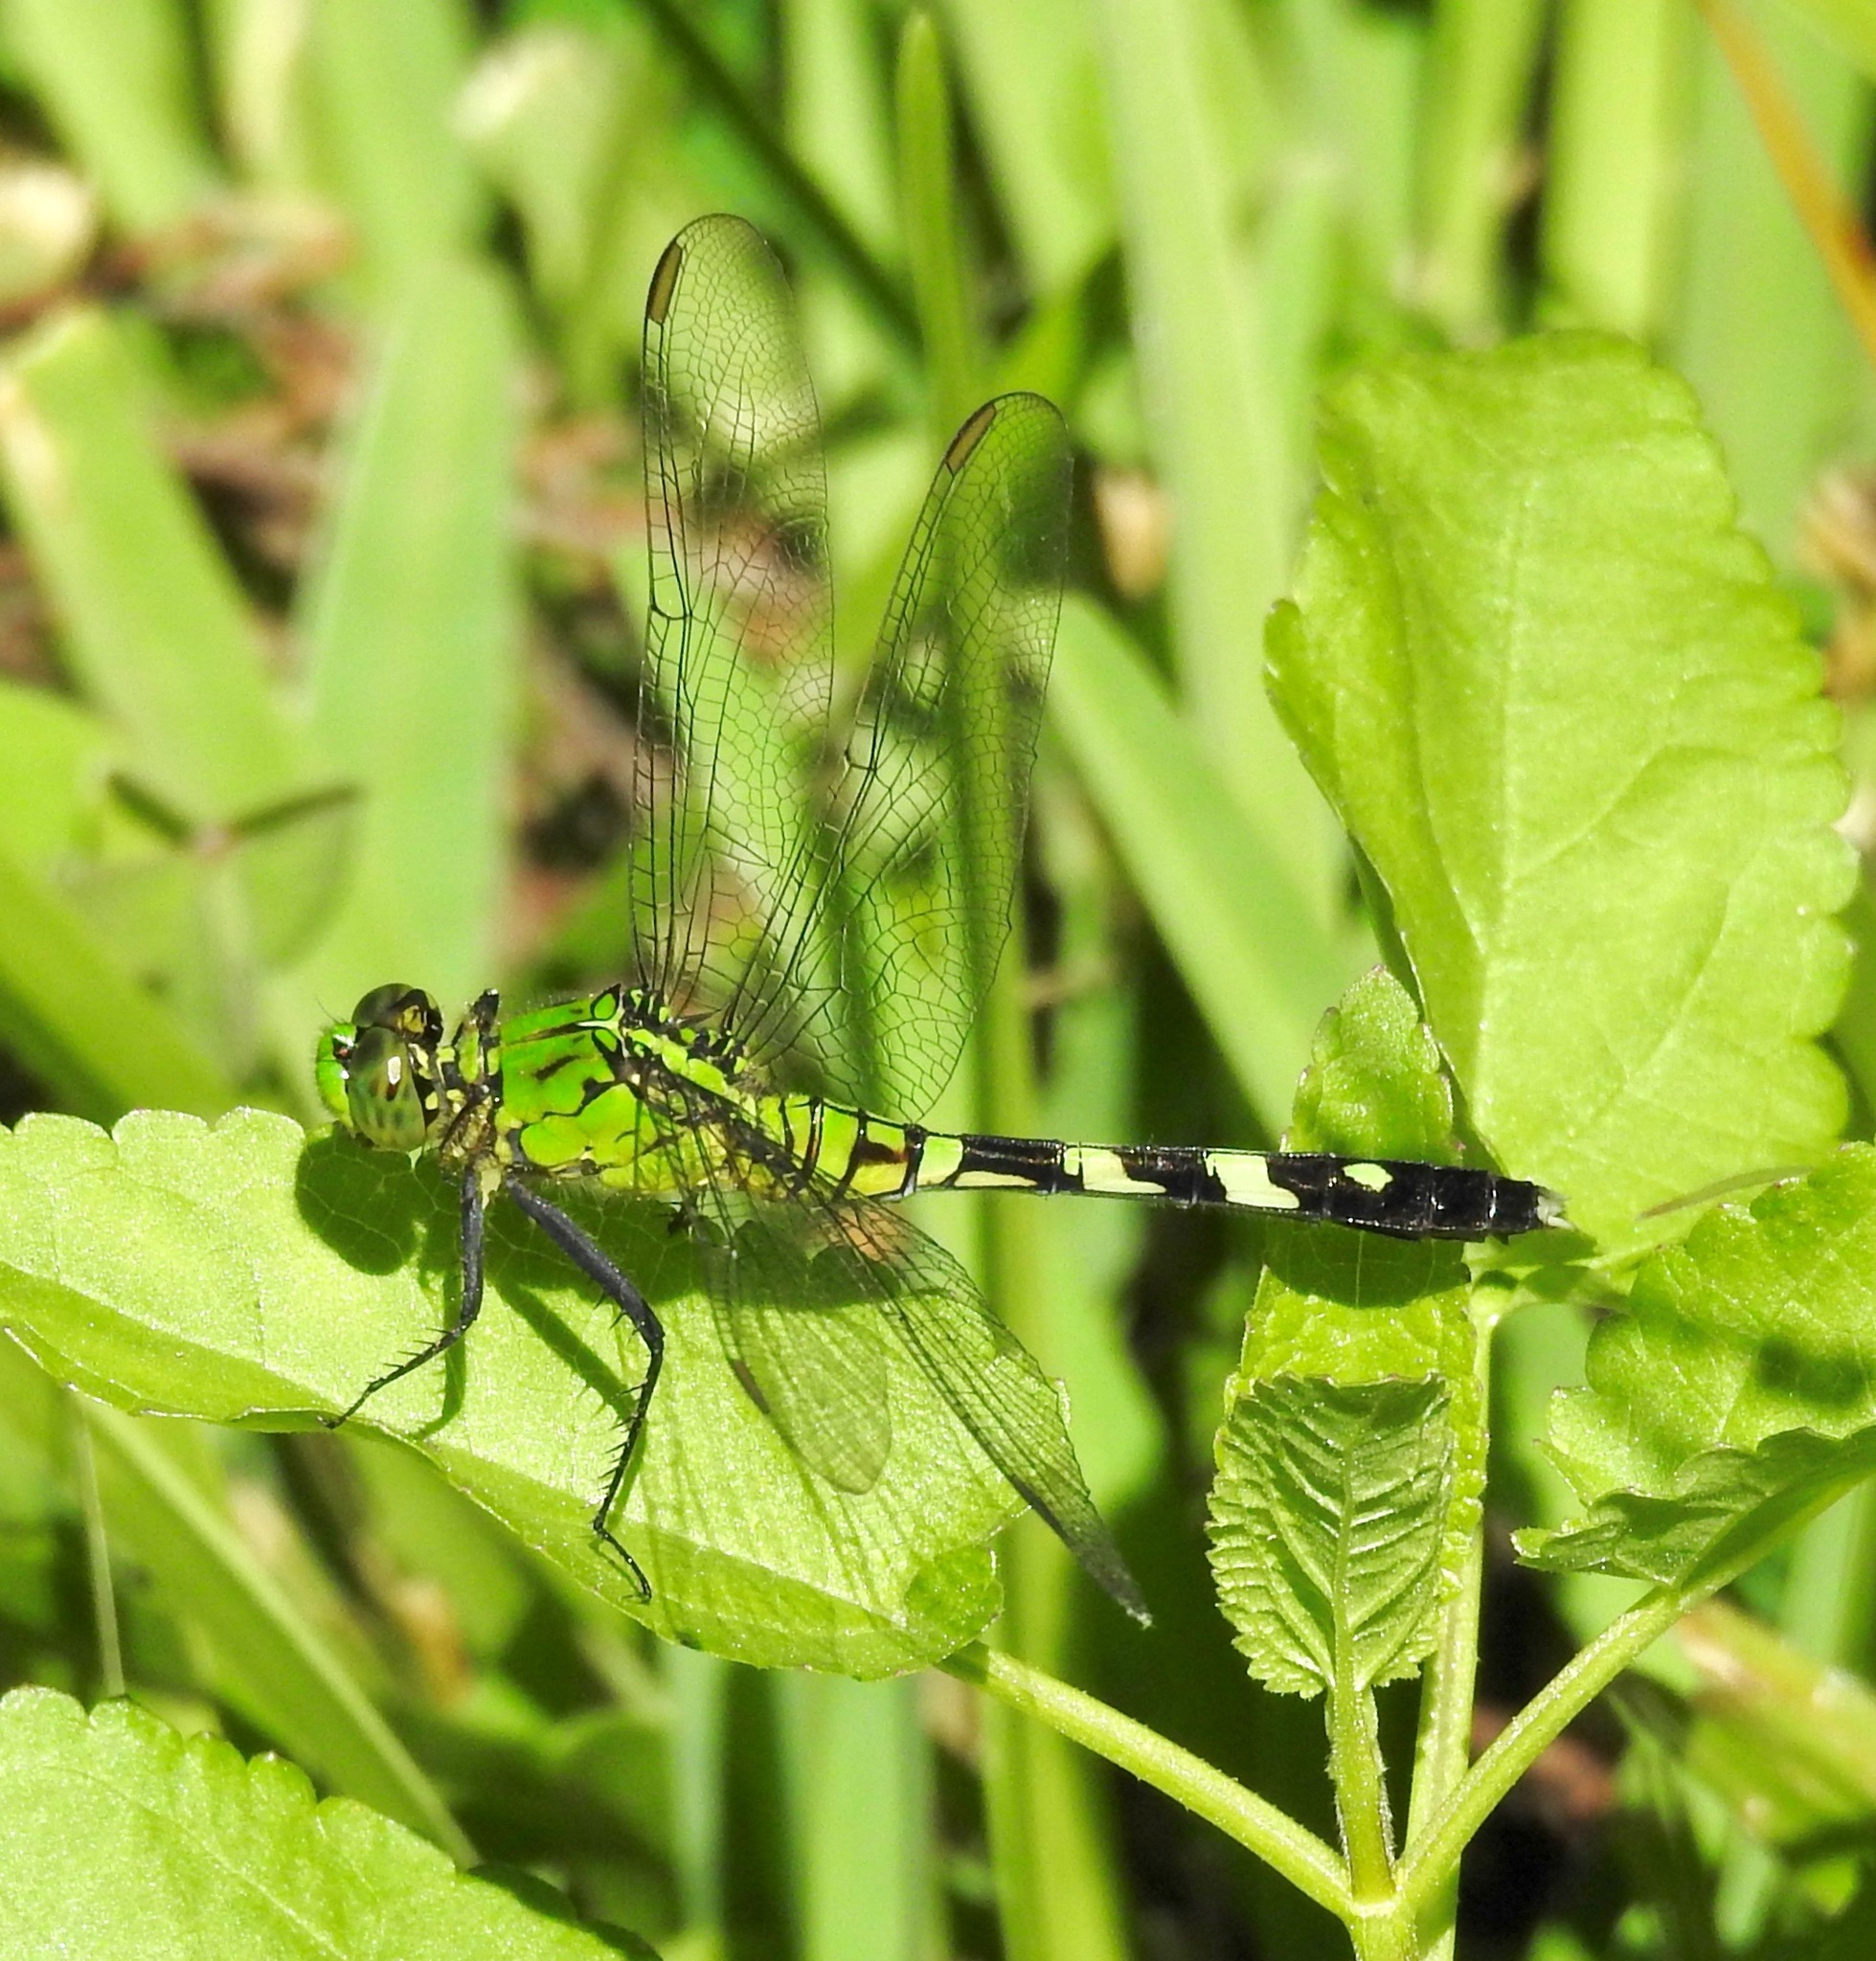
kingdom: Animalia
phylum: Arthropoda
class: Insecta
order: Odonata
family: Libellulidae
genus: Erythemis
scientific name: Erythemis simplicicollis
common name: Eastern pondhawk
